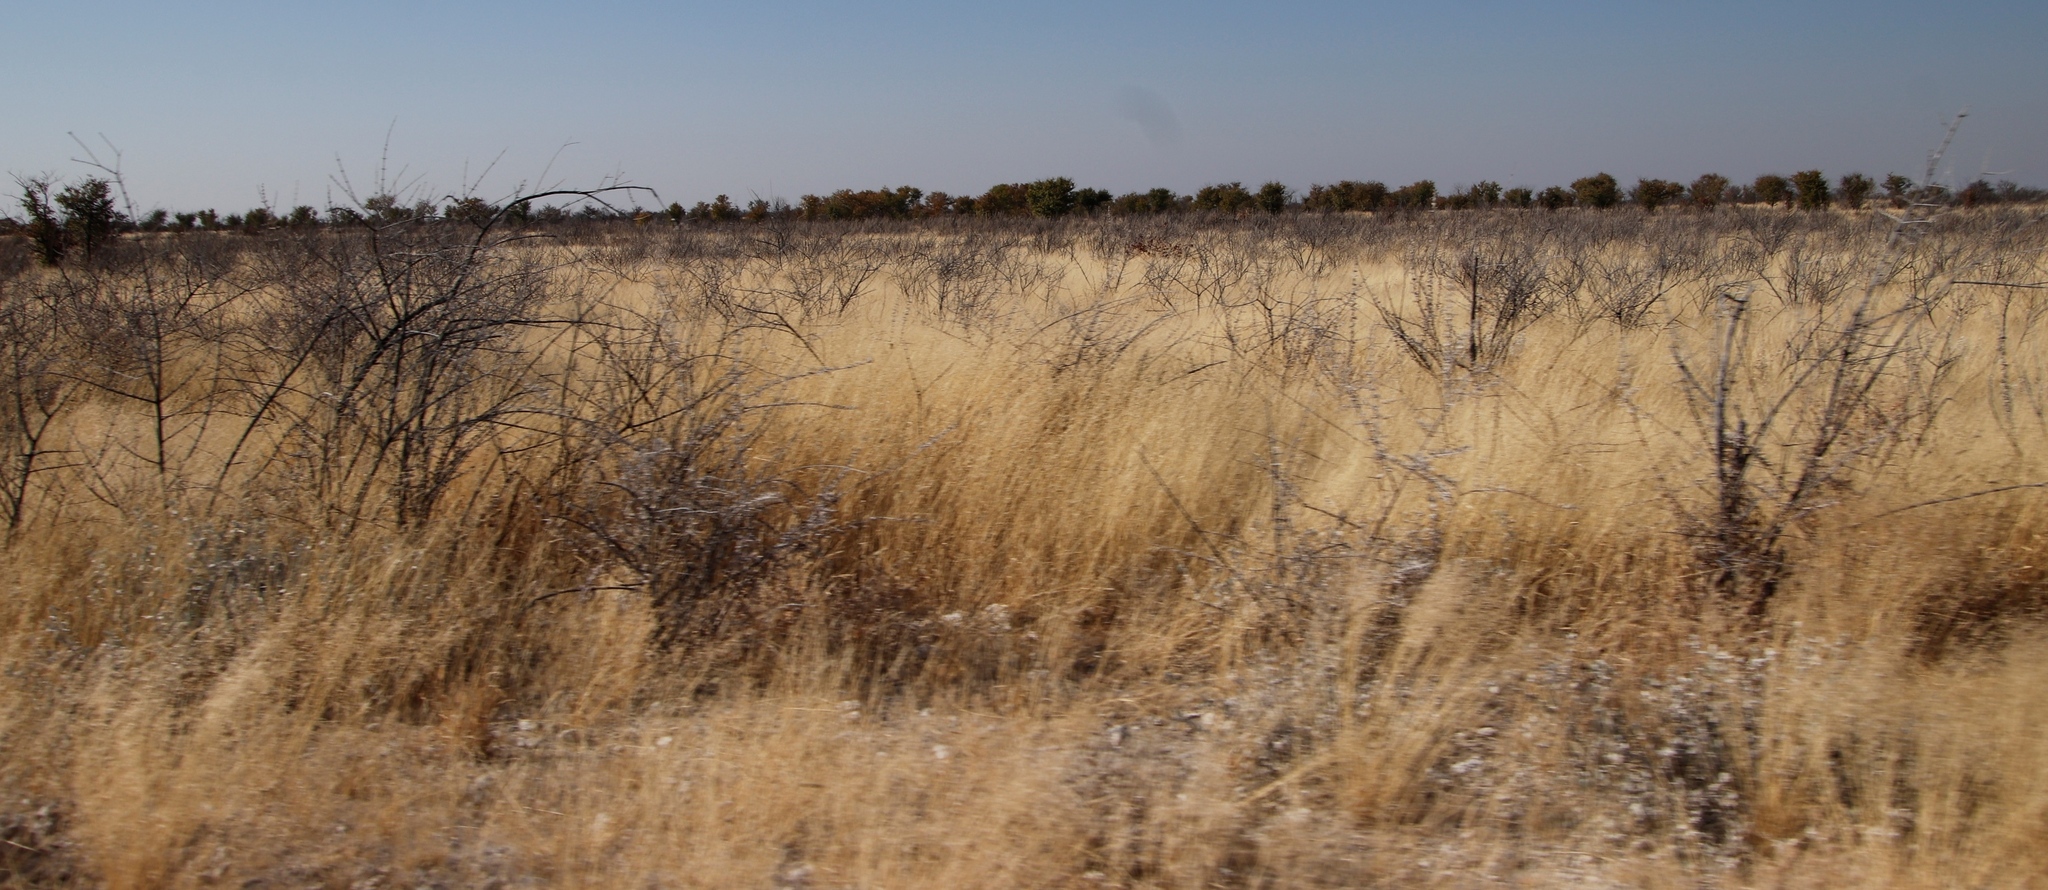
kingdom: Plantae
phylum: Tracheophyta
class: Magnoliopsida
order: Lamiales
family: Bignoniaceae
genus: Catophractes
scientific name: Catophractes alexandri
